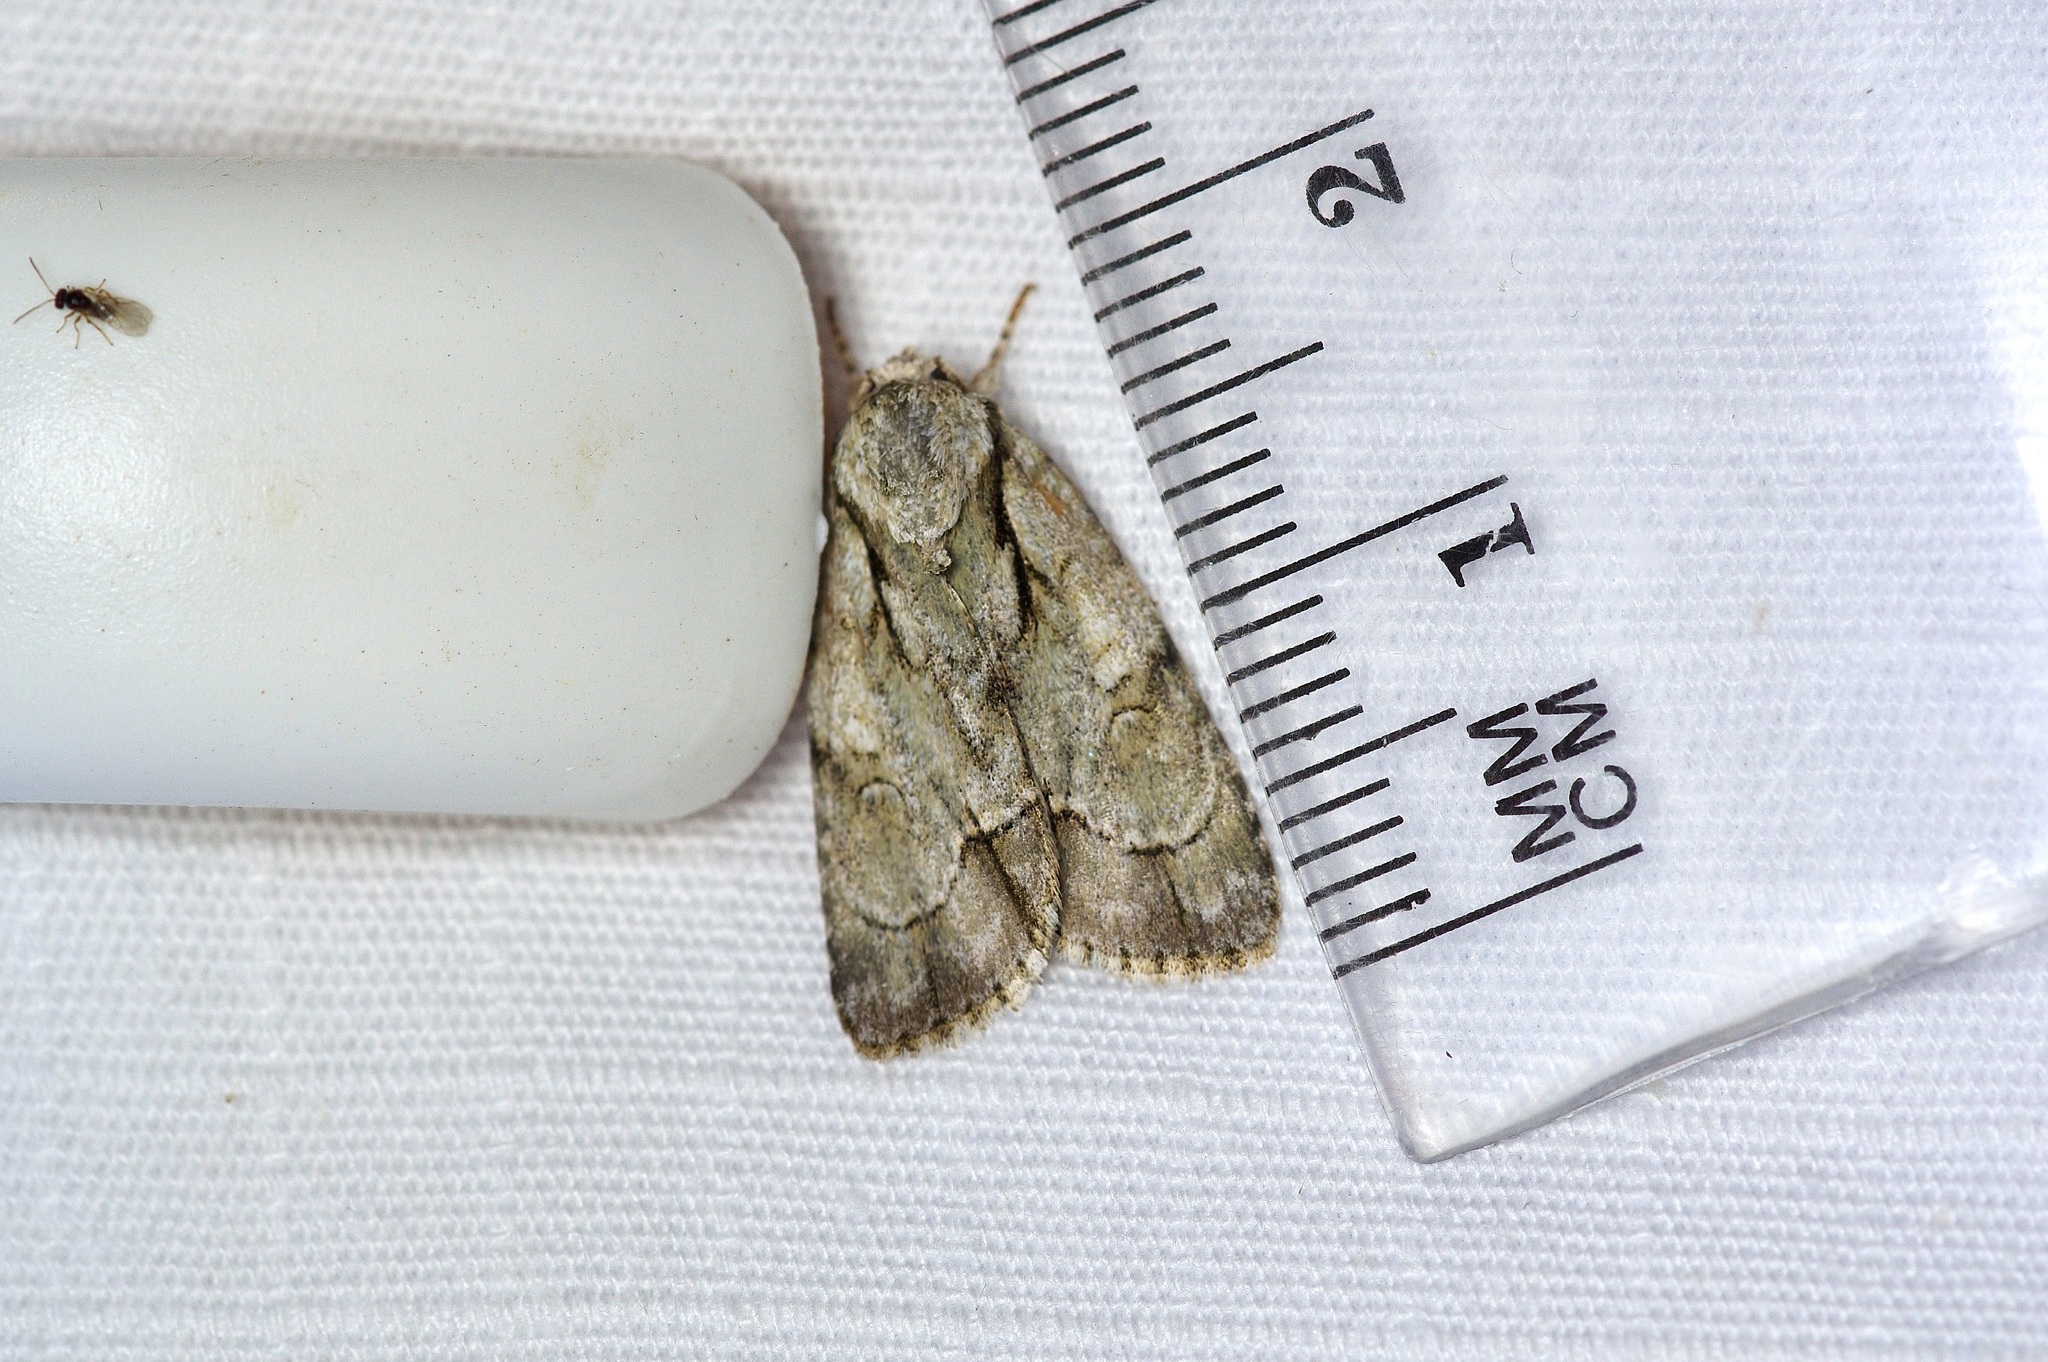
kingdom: Animalia
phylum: Arthropoda
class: Insecta
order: Lepidoptera
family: Noctuidae
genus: Acronicta
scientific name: Acronicta vinnula
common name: Delightful dagger
